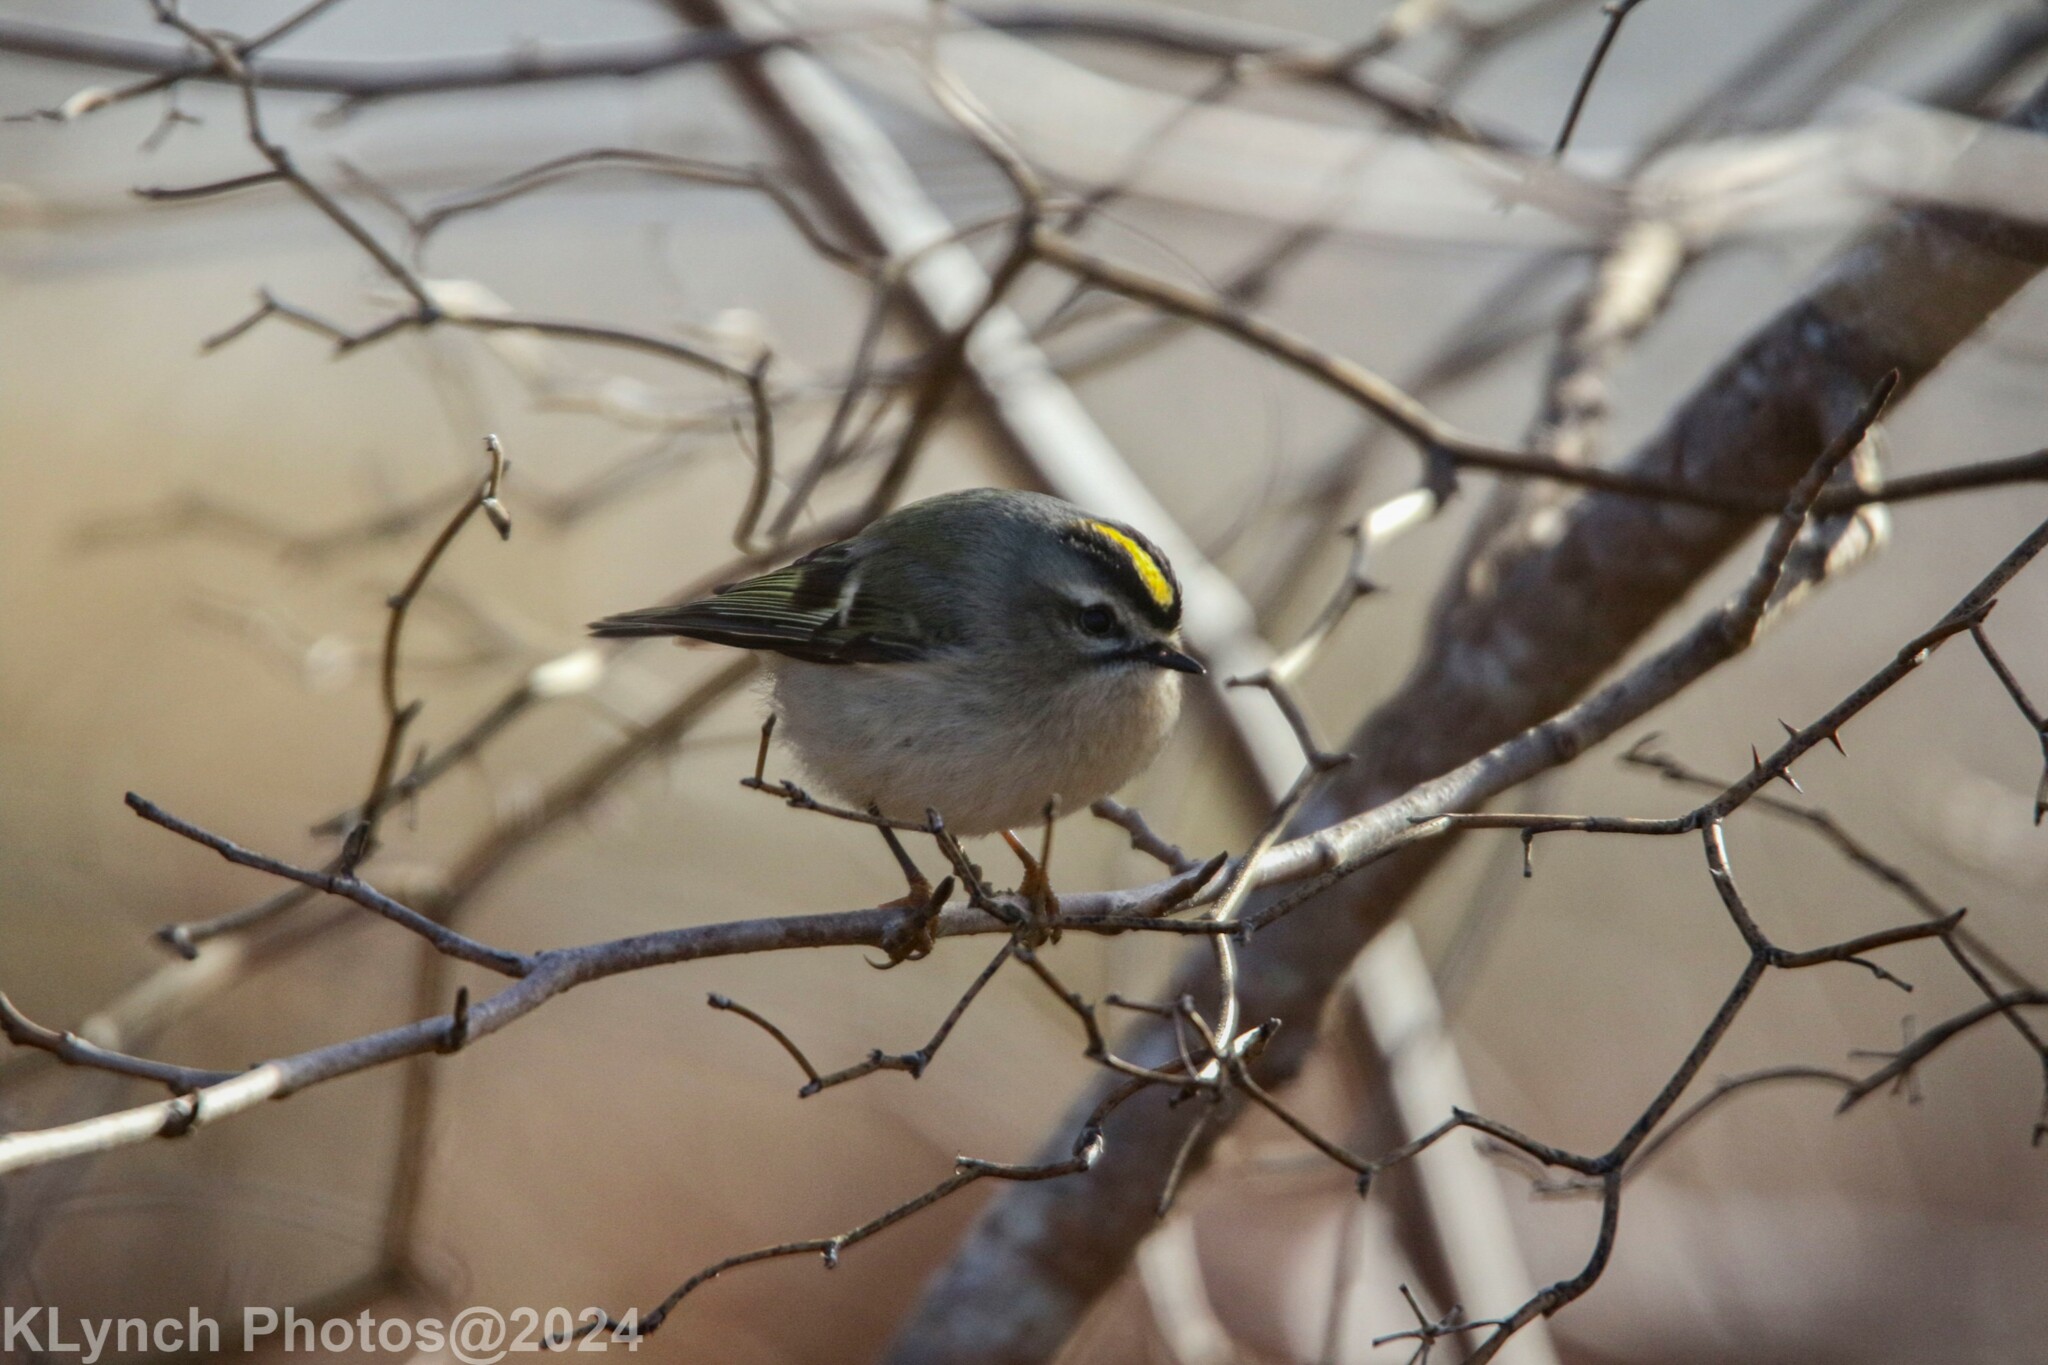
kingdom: Animalia
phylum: Chordata
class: Aves
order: Passeriformes
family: Regulidae
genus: Regulus
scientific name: Regulus satrapa
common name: Golden-crowned kinglet
